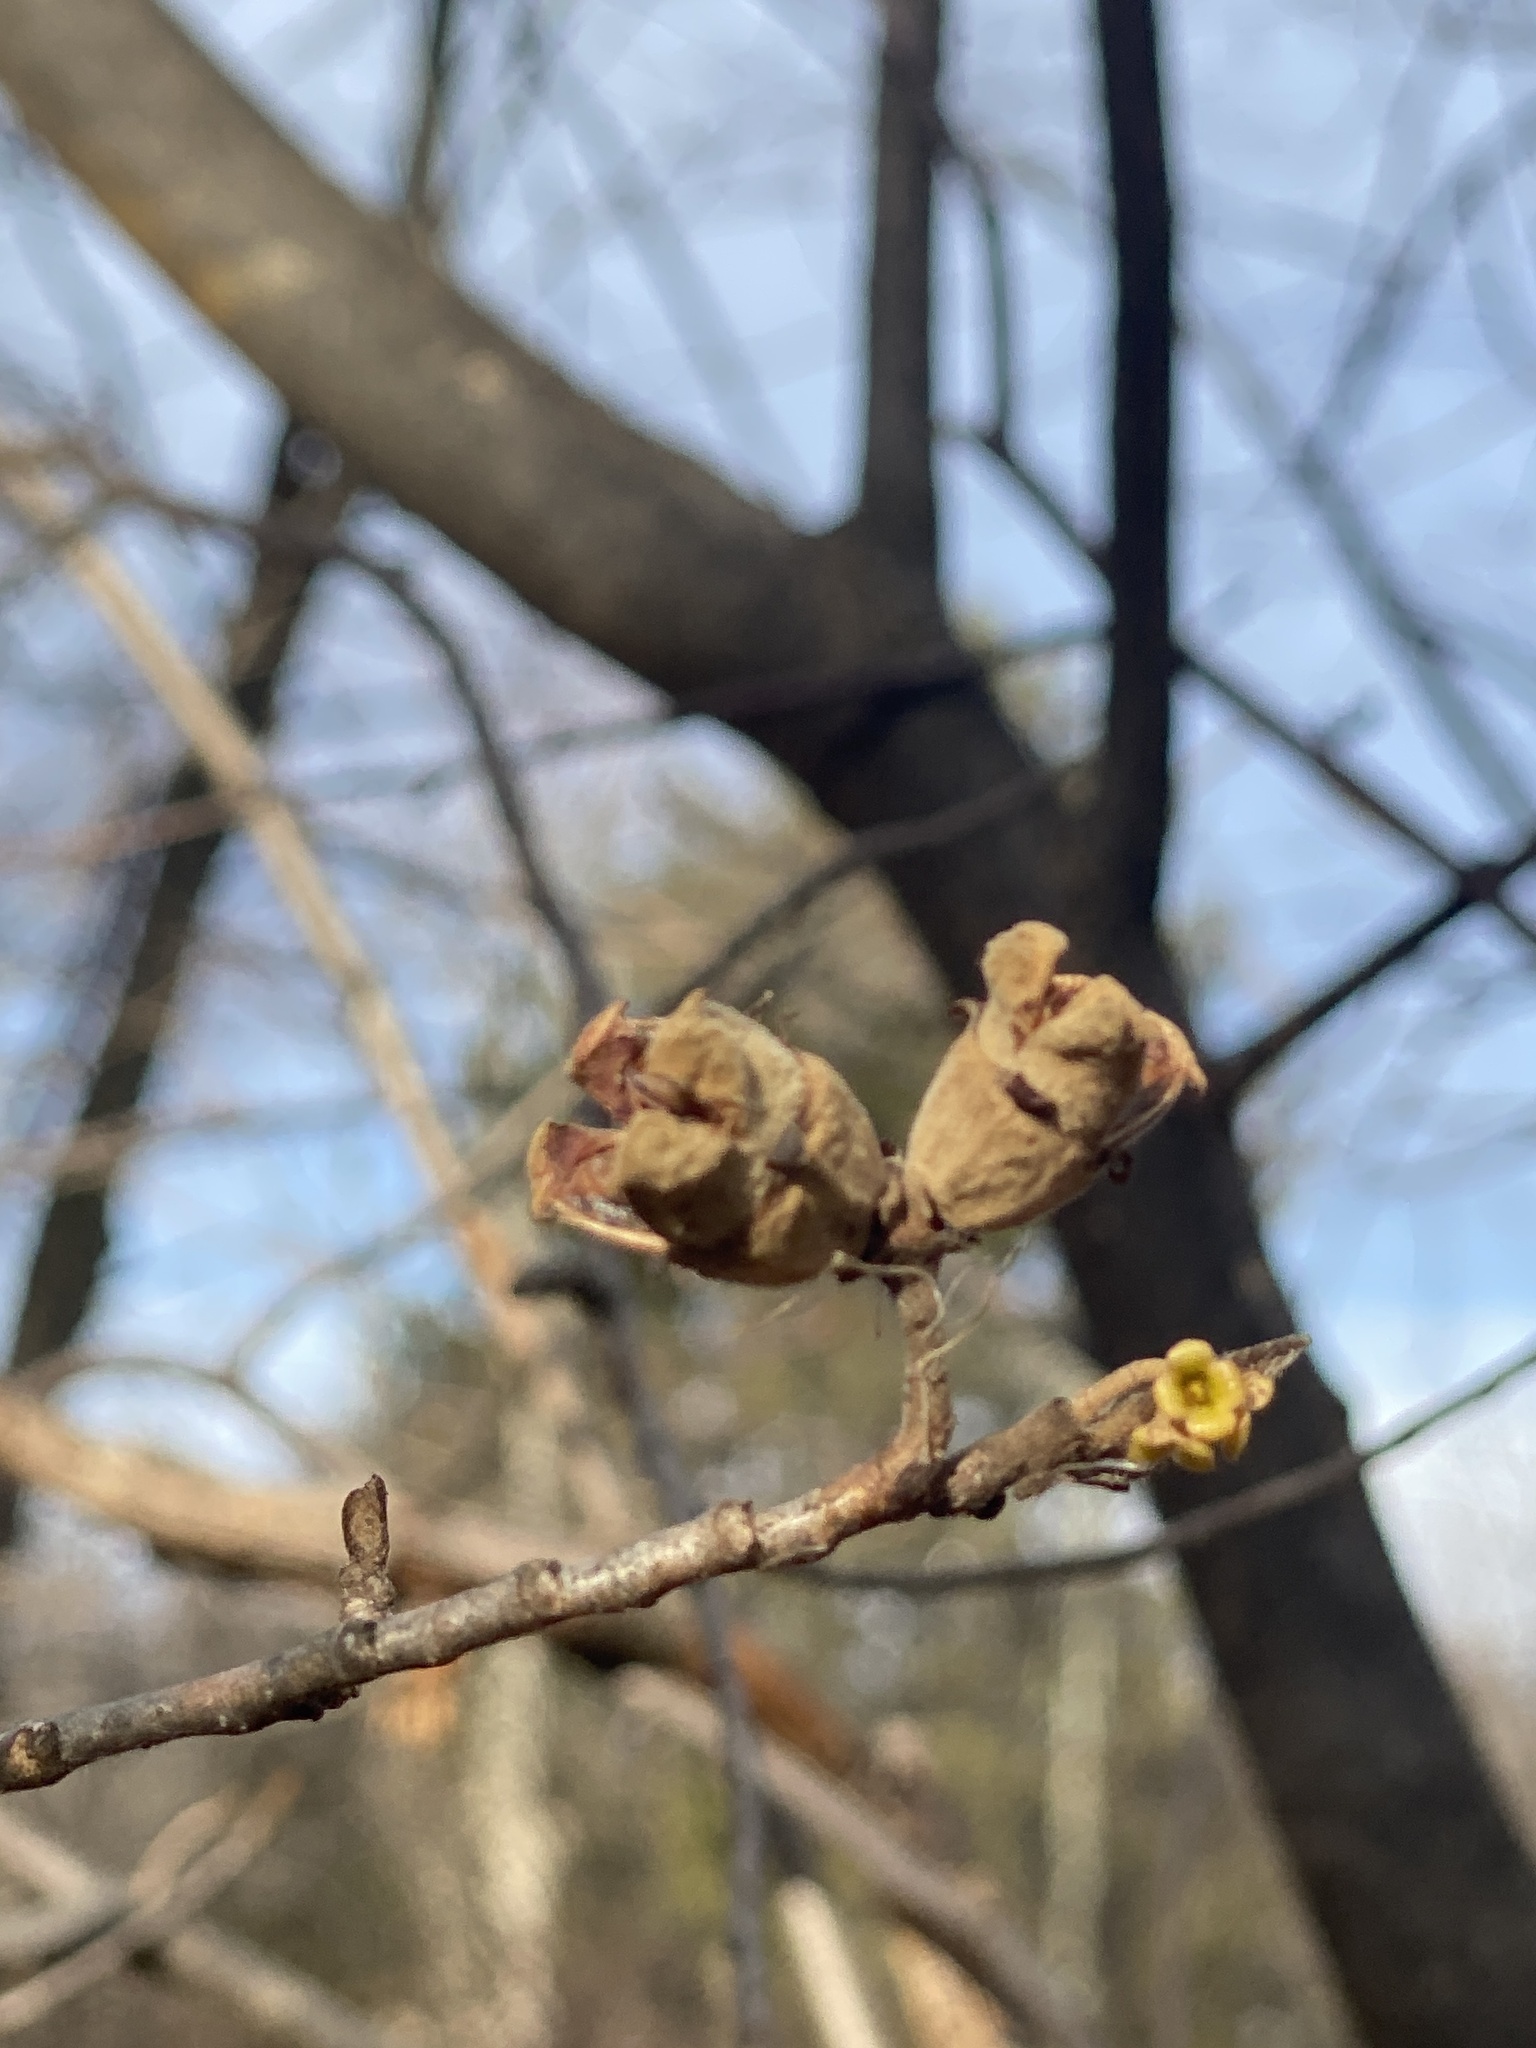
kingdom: Plantae
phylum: Tracheophyta
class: Magnoliopsida
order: Saxifragales
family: Hamamelidaceae
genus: Hamamelis
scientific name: Hamamelis virginiana
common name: Witch-hazel
